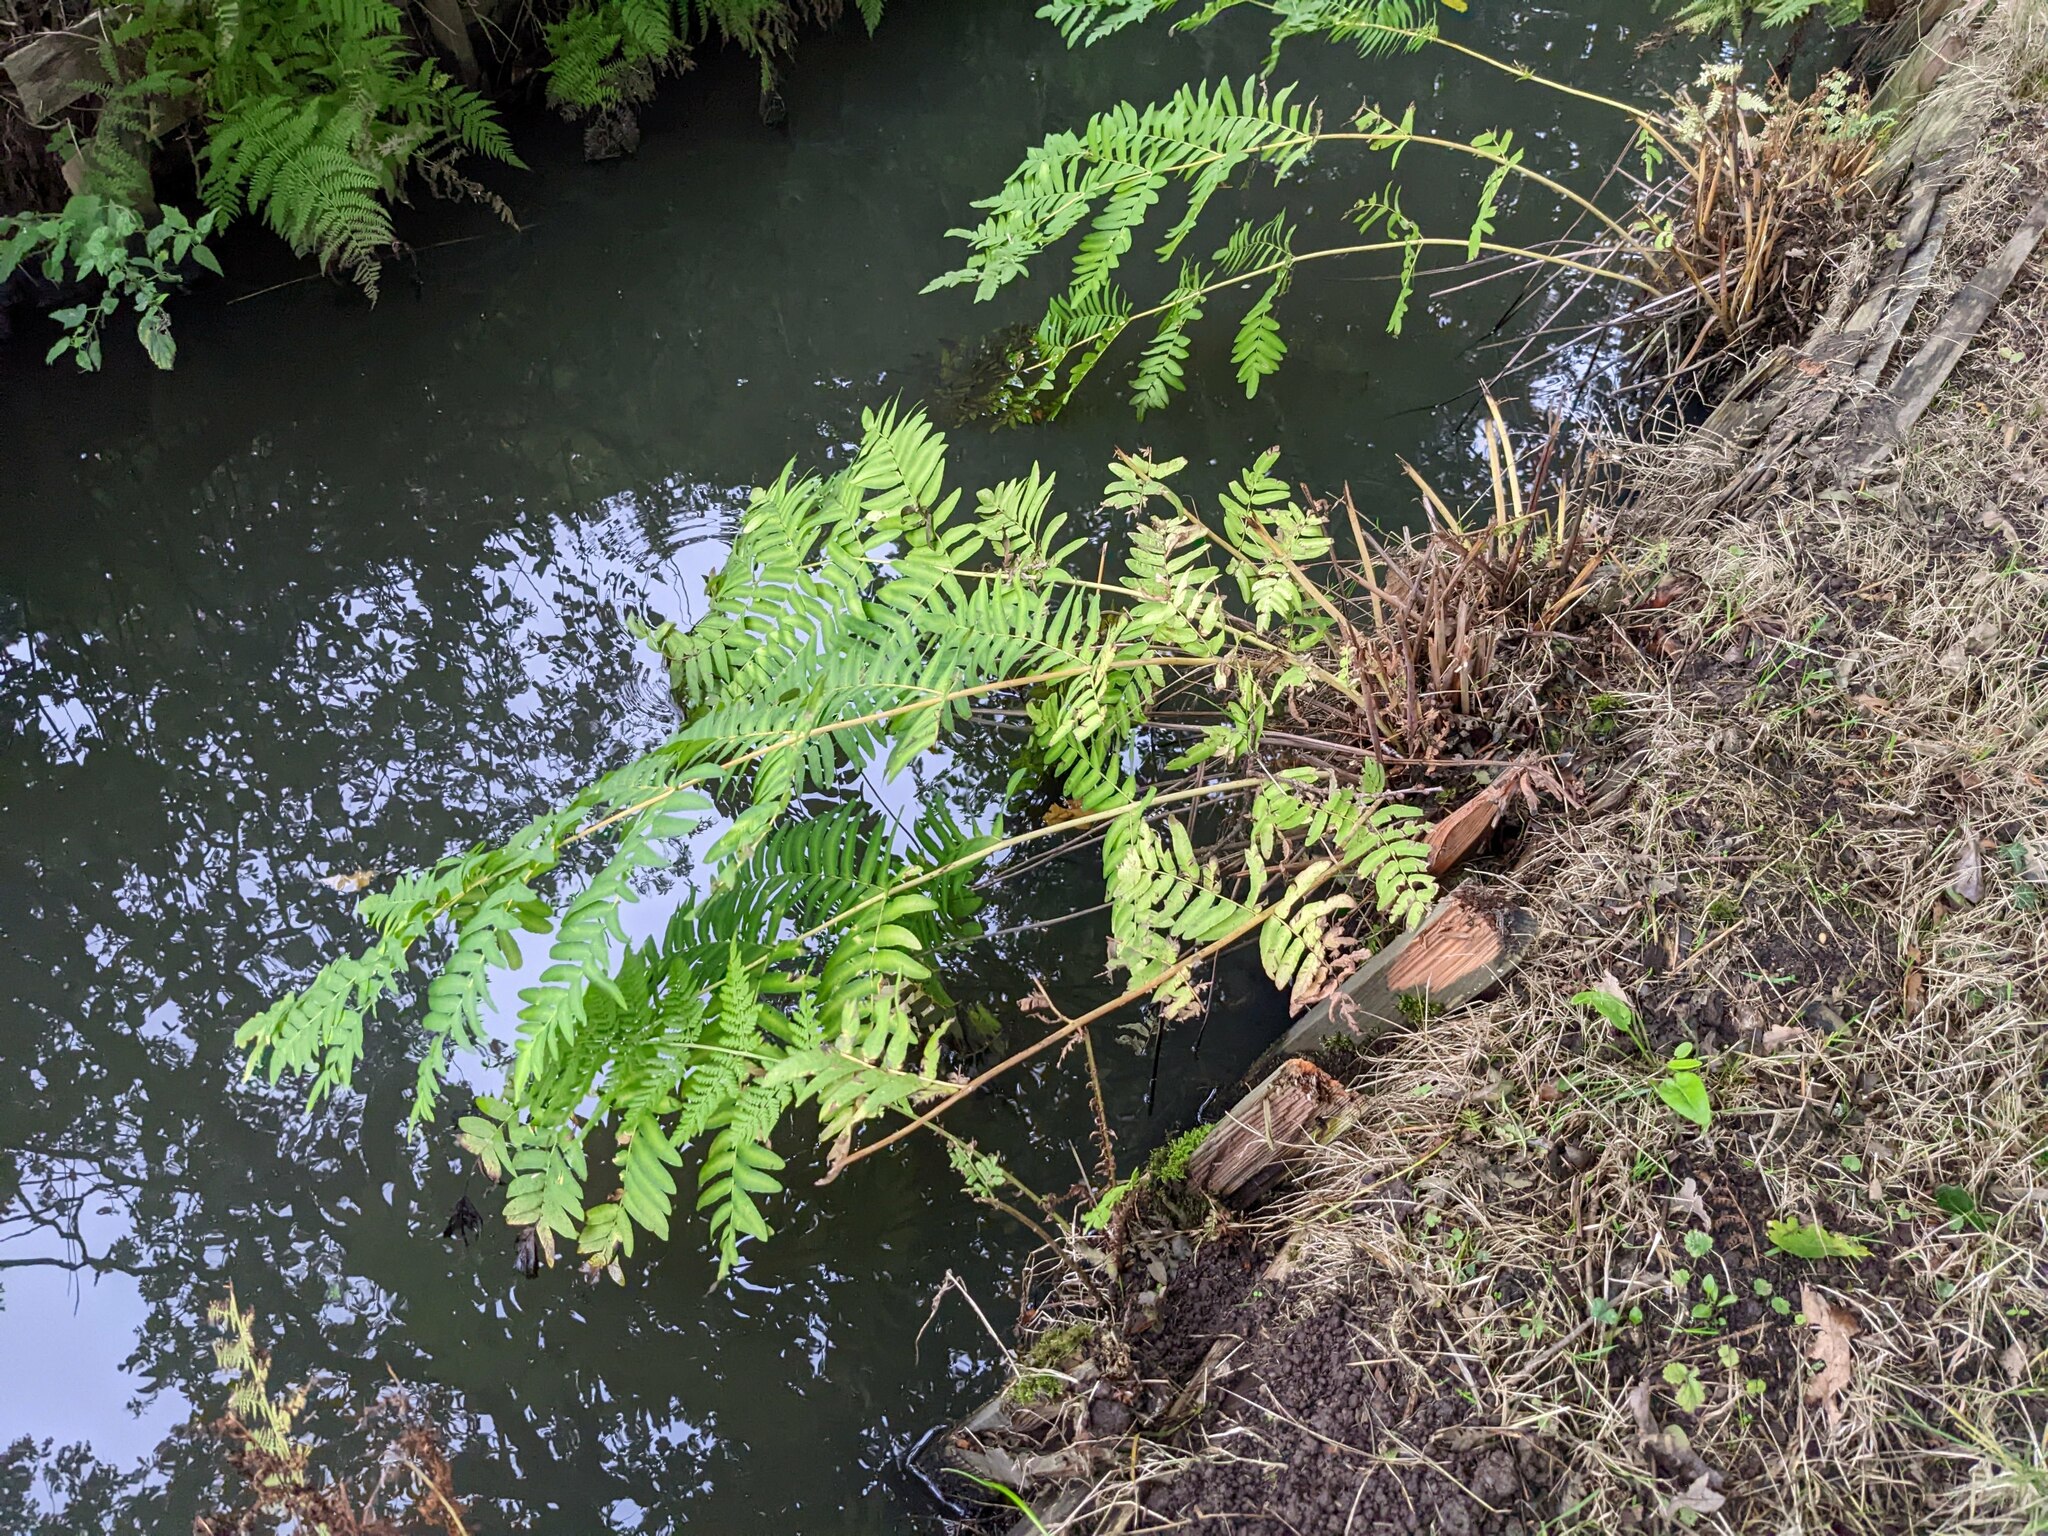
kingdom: Plantae
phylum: Tracheophyta
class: Polypodiopsida
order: Osmundales
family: Osmundaceae
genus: Osmunda
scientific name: Osmunda regalis
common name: Royal fern
